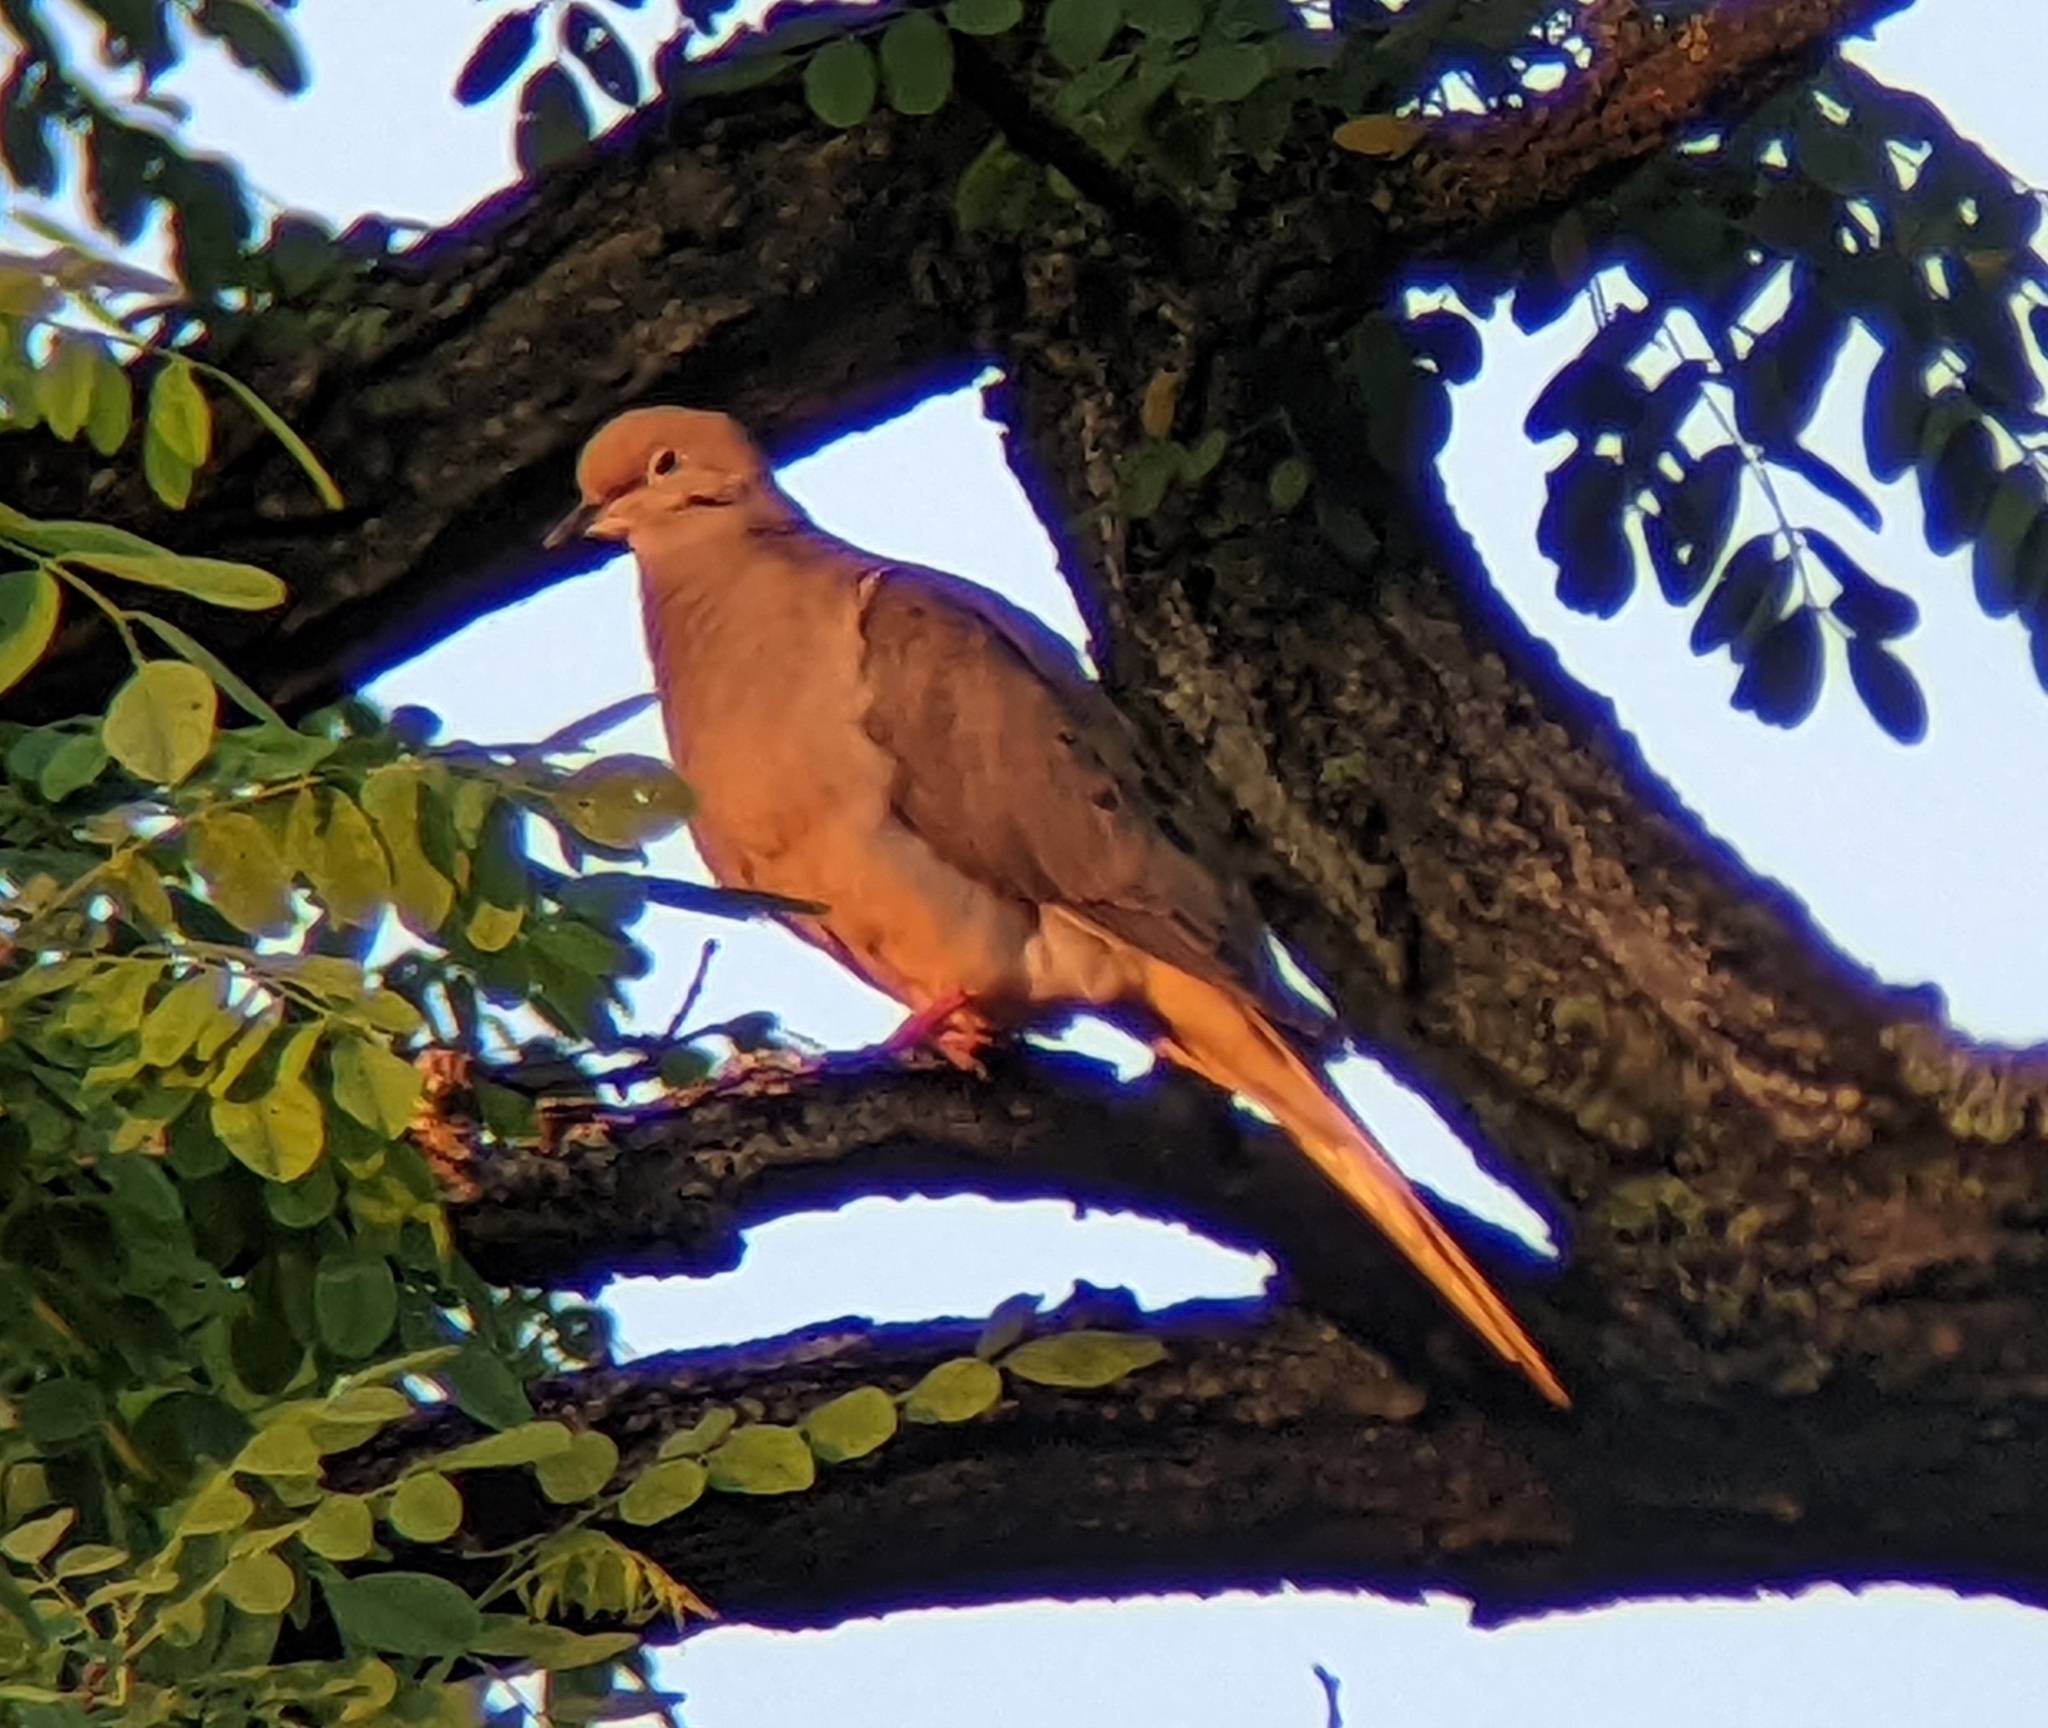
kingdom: Animalia
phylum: Chordata
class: Aves
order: Columbiformes
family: Columbidae
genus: Zenaida
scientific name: Zenaida macroura
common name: Mourning dove
